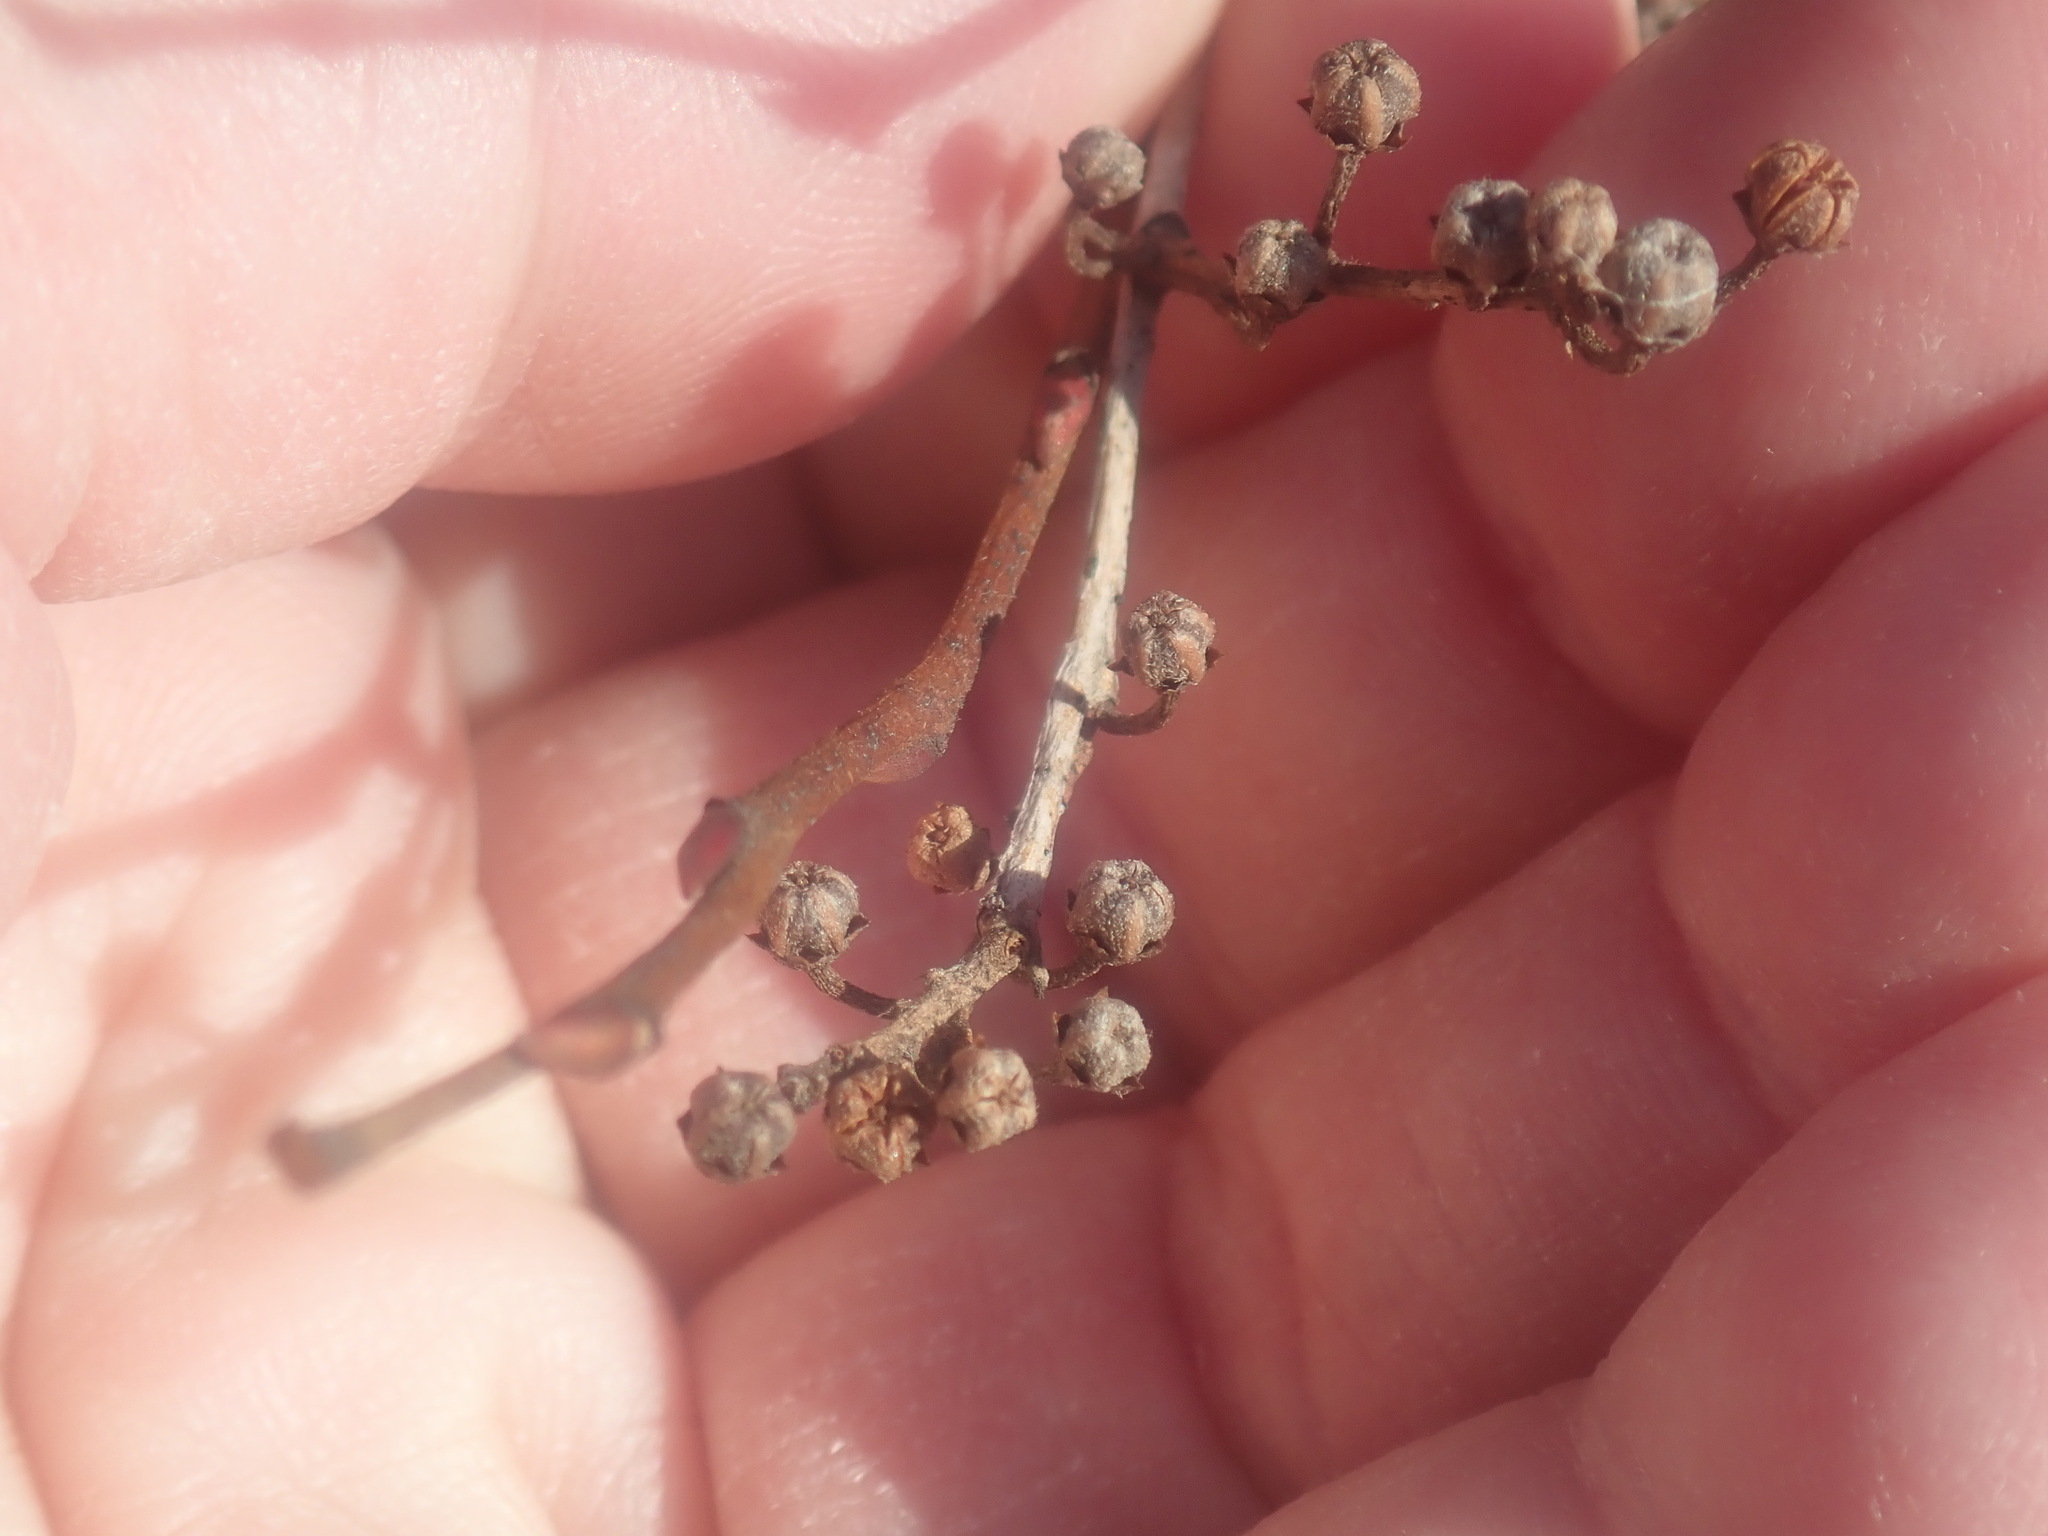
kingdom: Plantae
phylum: Tracheophyta
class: Magnoliopsida
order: Ericales
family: Ericaceae
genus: Lyonia
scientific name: Lyonia ligustrina
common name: Maleberry
